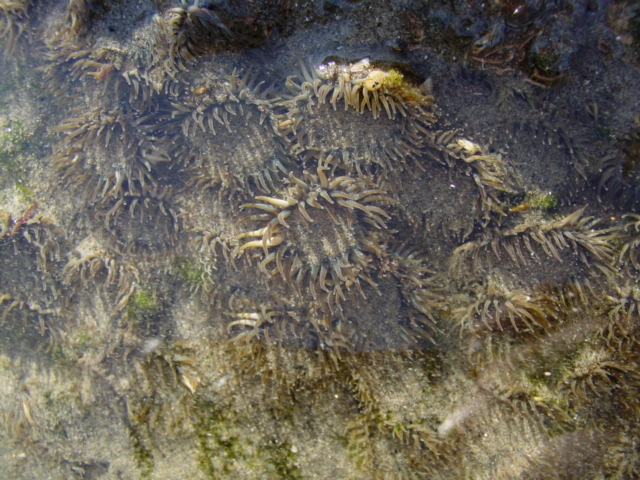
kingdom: Animalia
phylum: Cnidaria
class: Anthozoa
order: Actiniaria
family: Actiniidae
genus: Anthopleura
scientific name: Anthopleura elegantissima
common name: Clonal anemone
